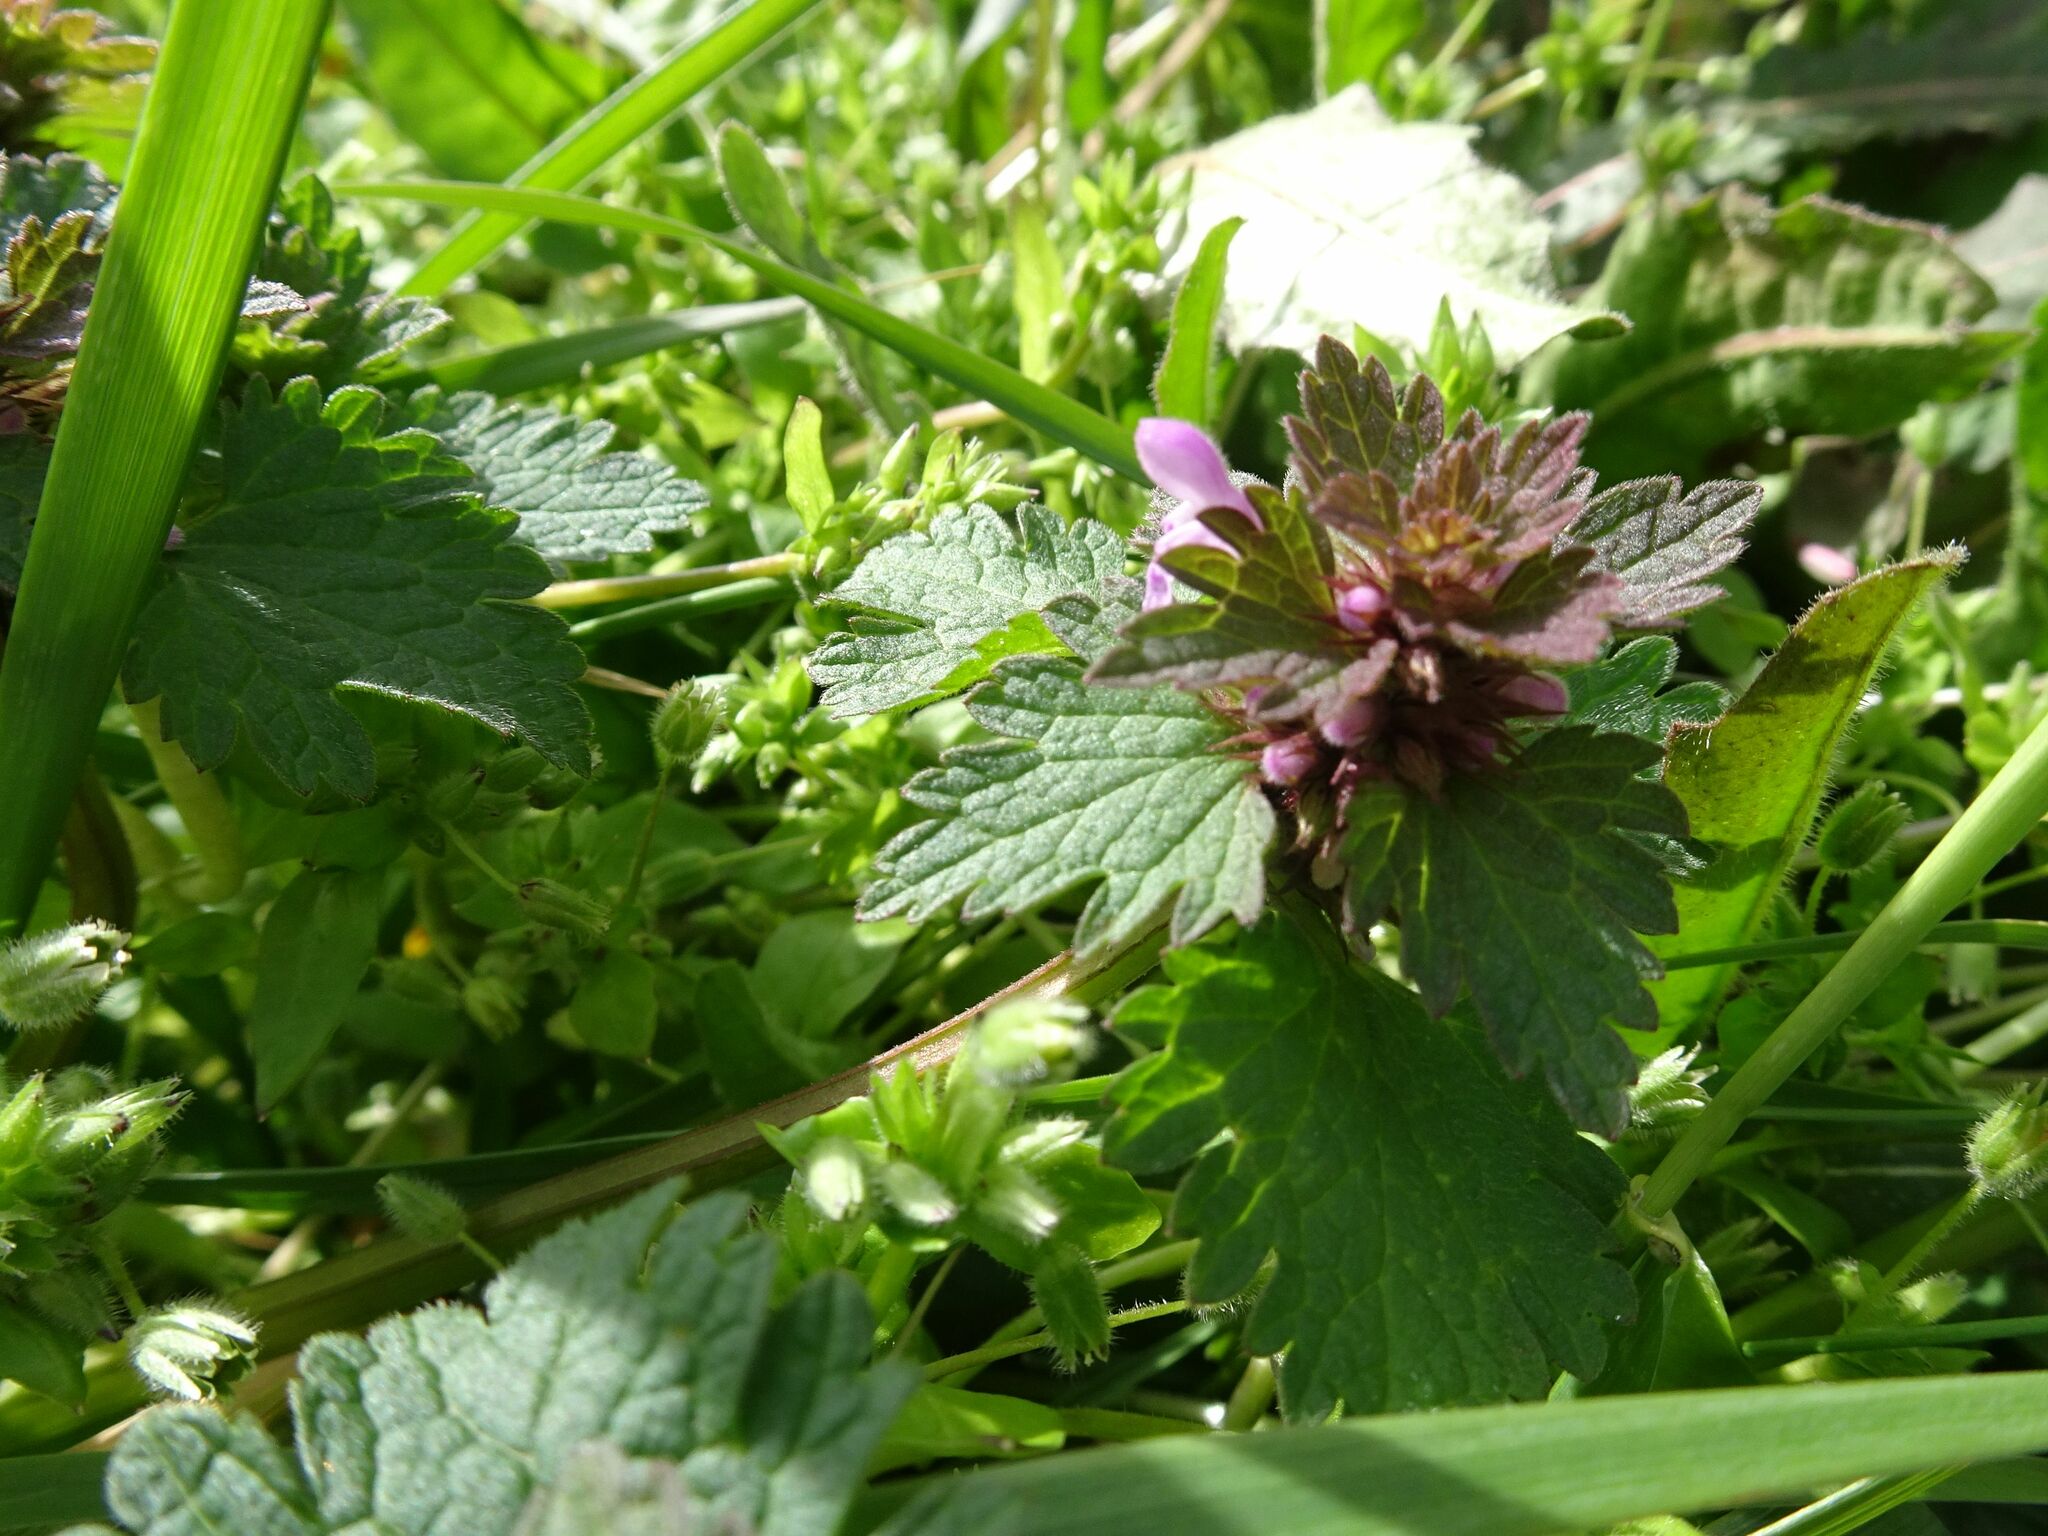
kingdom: Plantae
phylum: Tracheophyta
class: Magnoliopsida
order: Lamiales
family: Lamiaceae
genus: Lamium
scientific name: Lamium hybridum
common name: Cut-leaved dead-nettle
